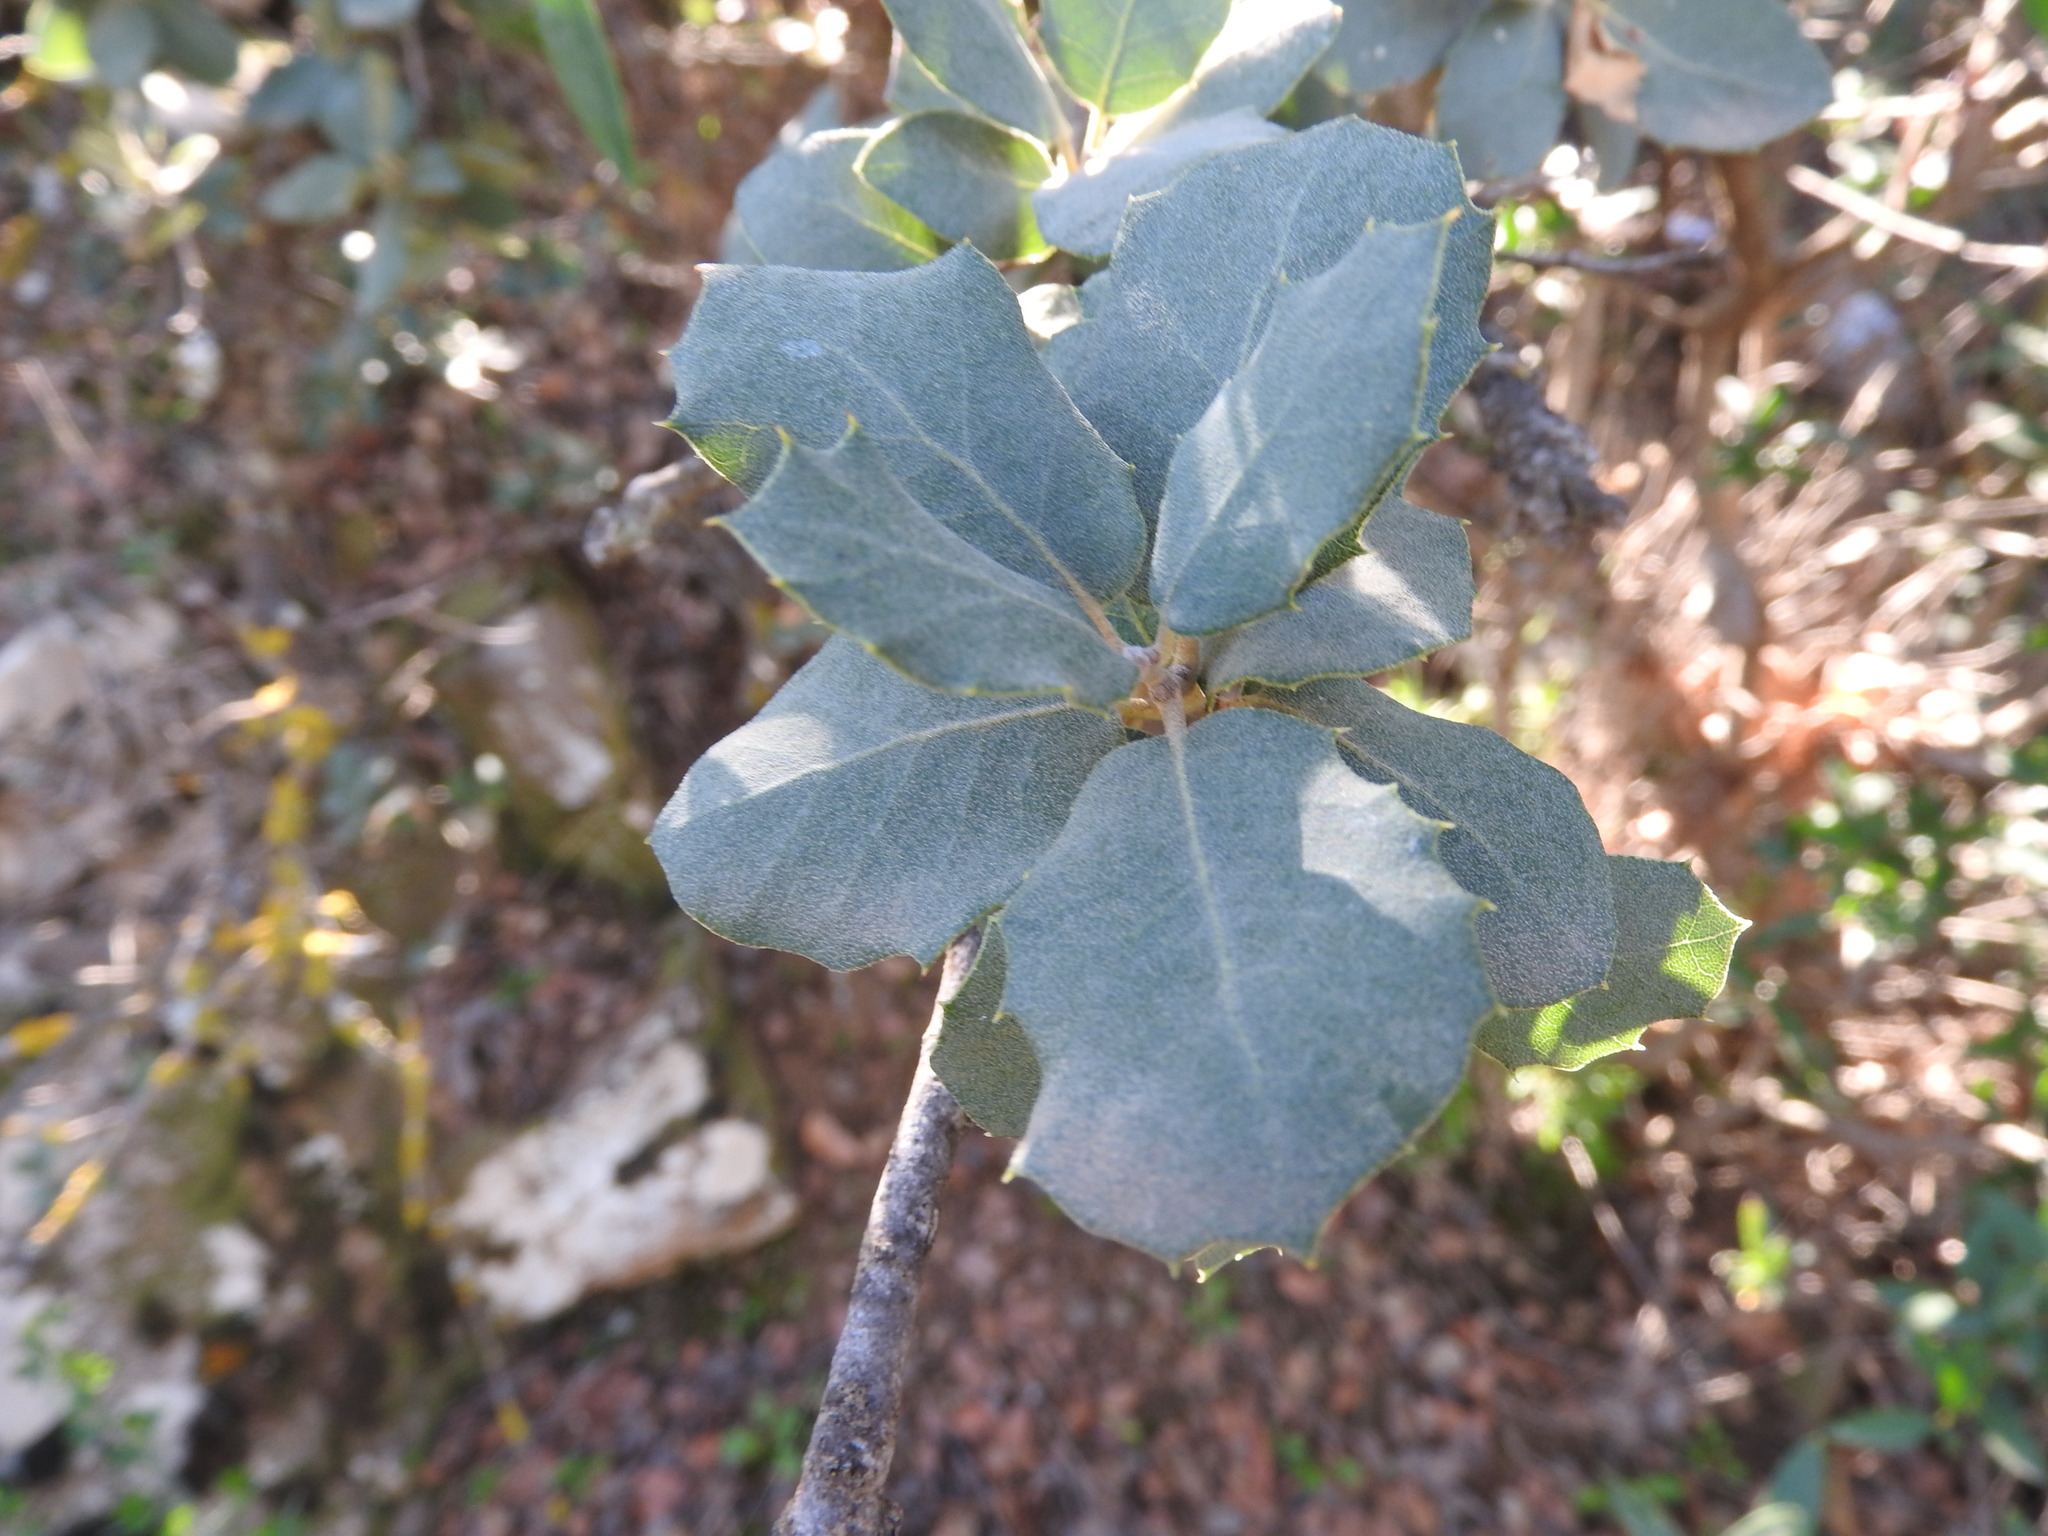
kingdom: Plantae
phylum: Tracheophyta
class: Magnoliopsida
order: Fagales
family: Fagaceae
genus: Quercus
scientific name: Quercus rotundifolia
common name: Holm oak
